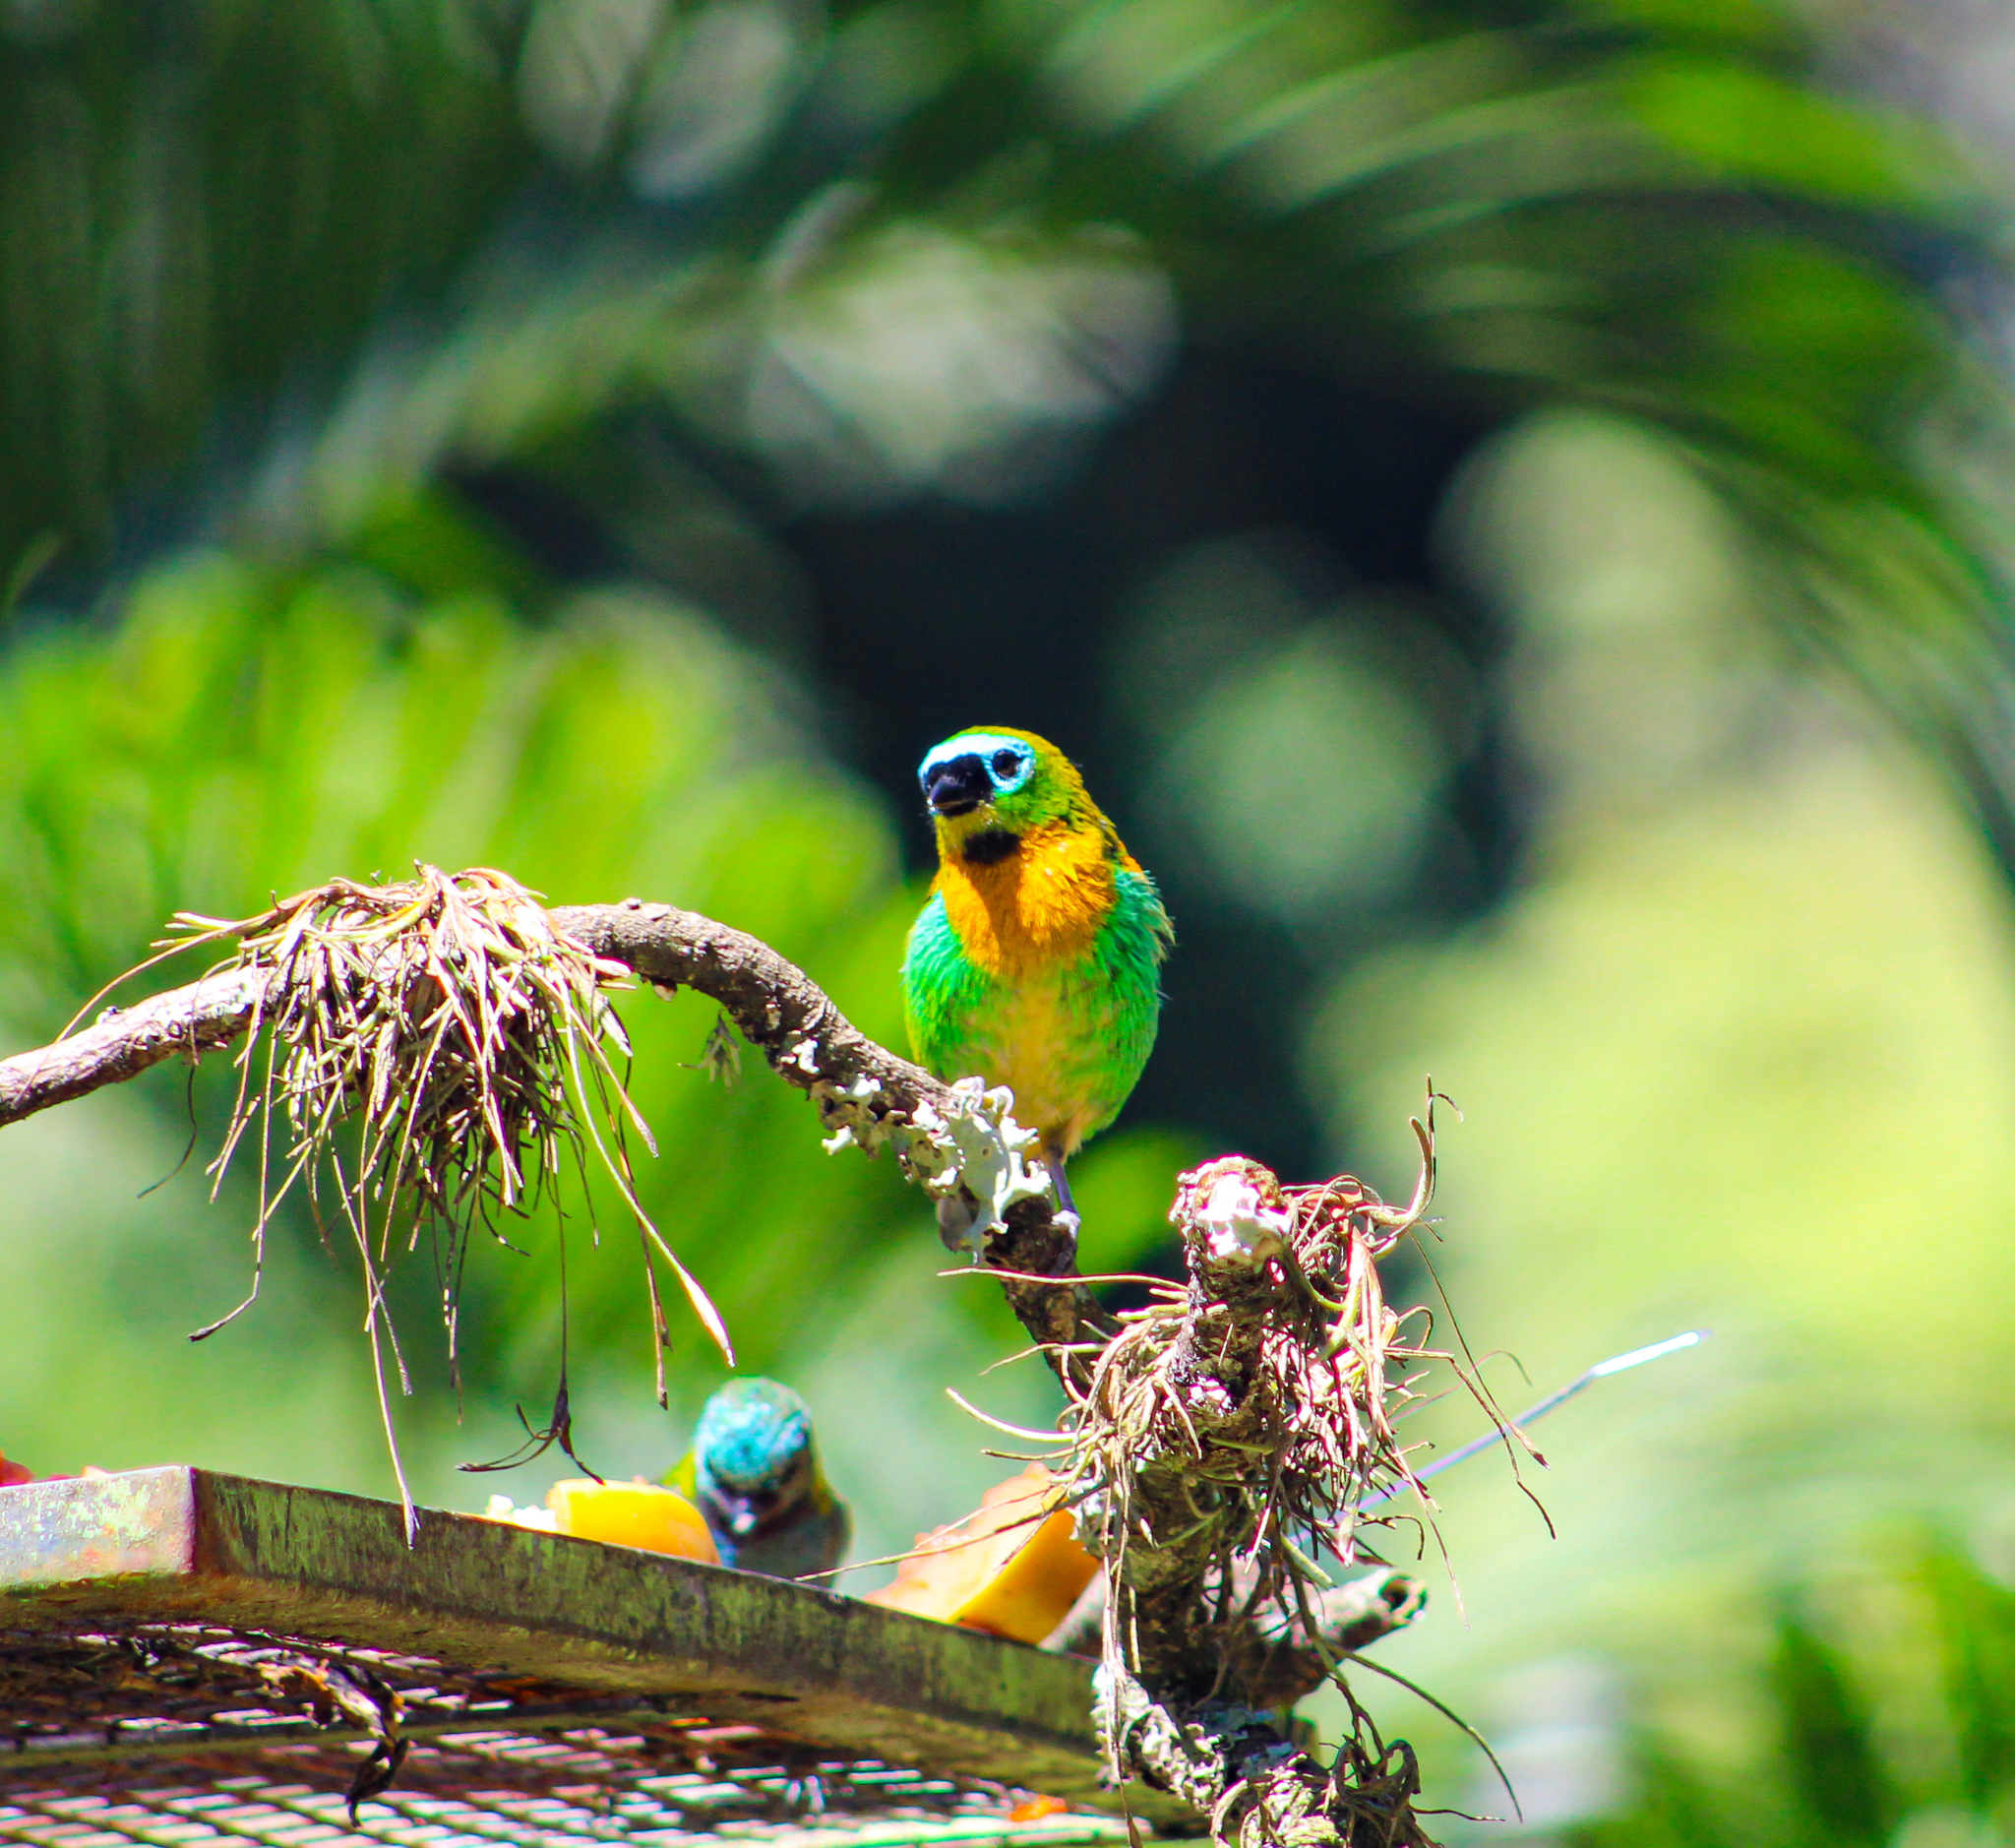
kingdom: Animalia
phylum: Chordata
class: Aves
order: Passeriformes
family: Thraupidae
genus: Tangara
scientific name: Tangara desmaresti
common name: Brassy-breasted tanager
